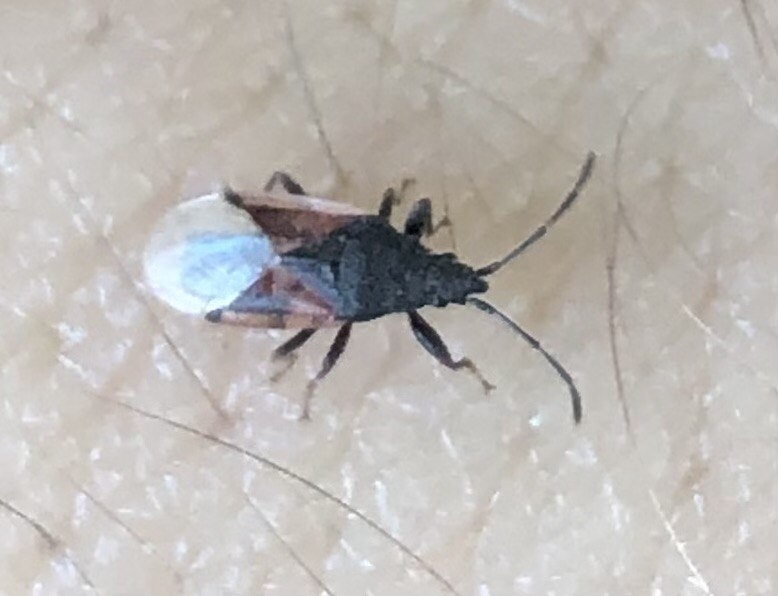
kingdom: Animalia
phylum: Arthropoda
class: Insecta
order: Hemiptera
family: Oxycarenidae
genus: Oxycarenus
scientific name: Oxycarenus lavaterae
